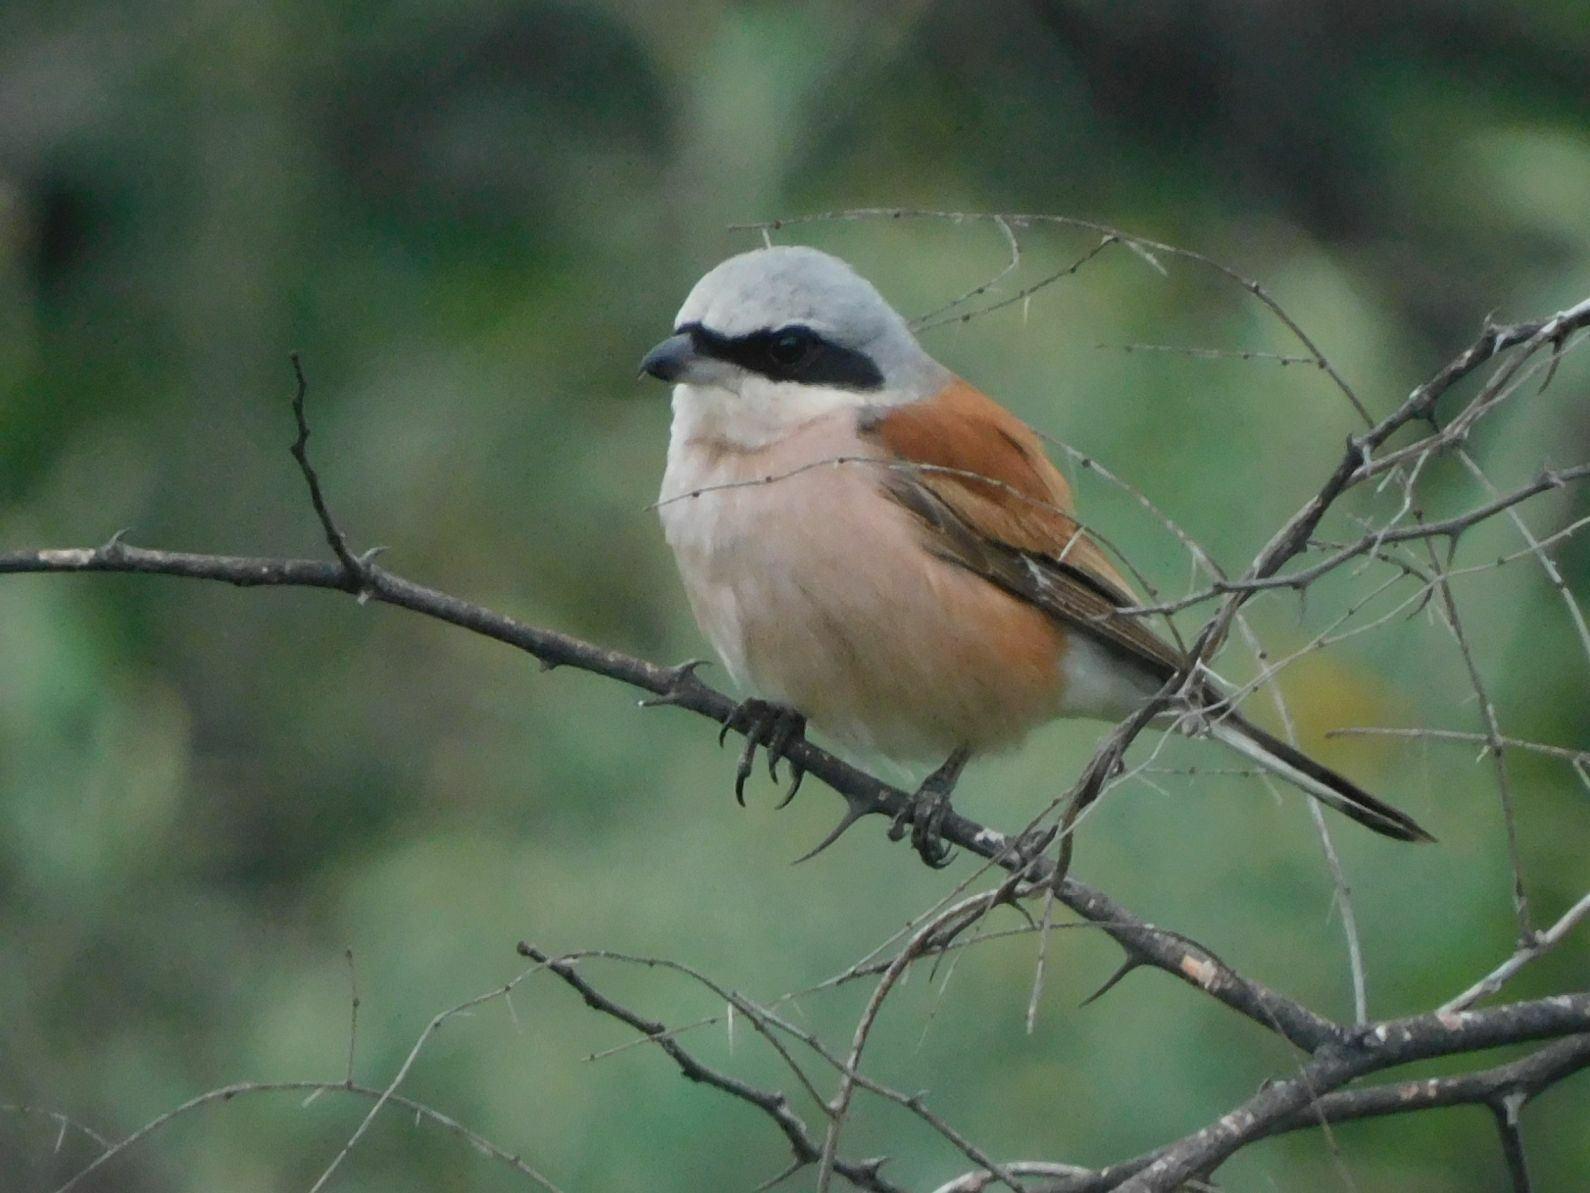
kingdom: Animalia
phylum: Chordata
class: Aves
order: Passeriformes
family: Laniidae
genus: Lanius
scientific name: Lanius collurio
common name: Red-backed shrike
